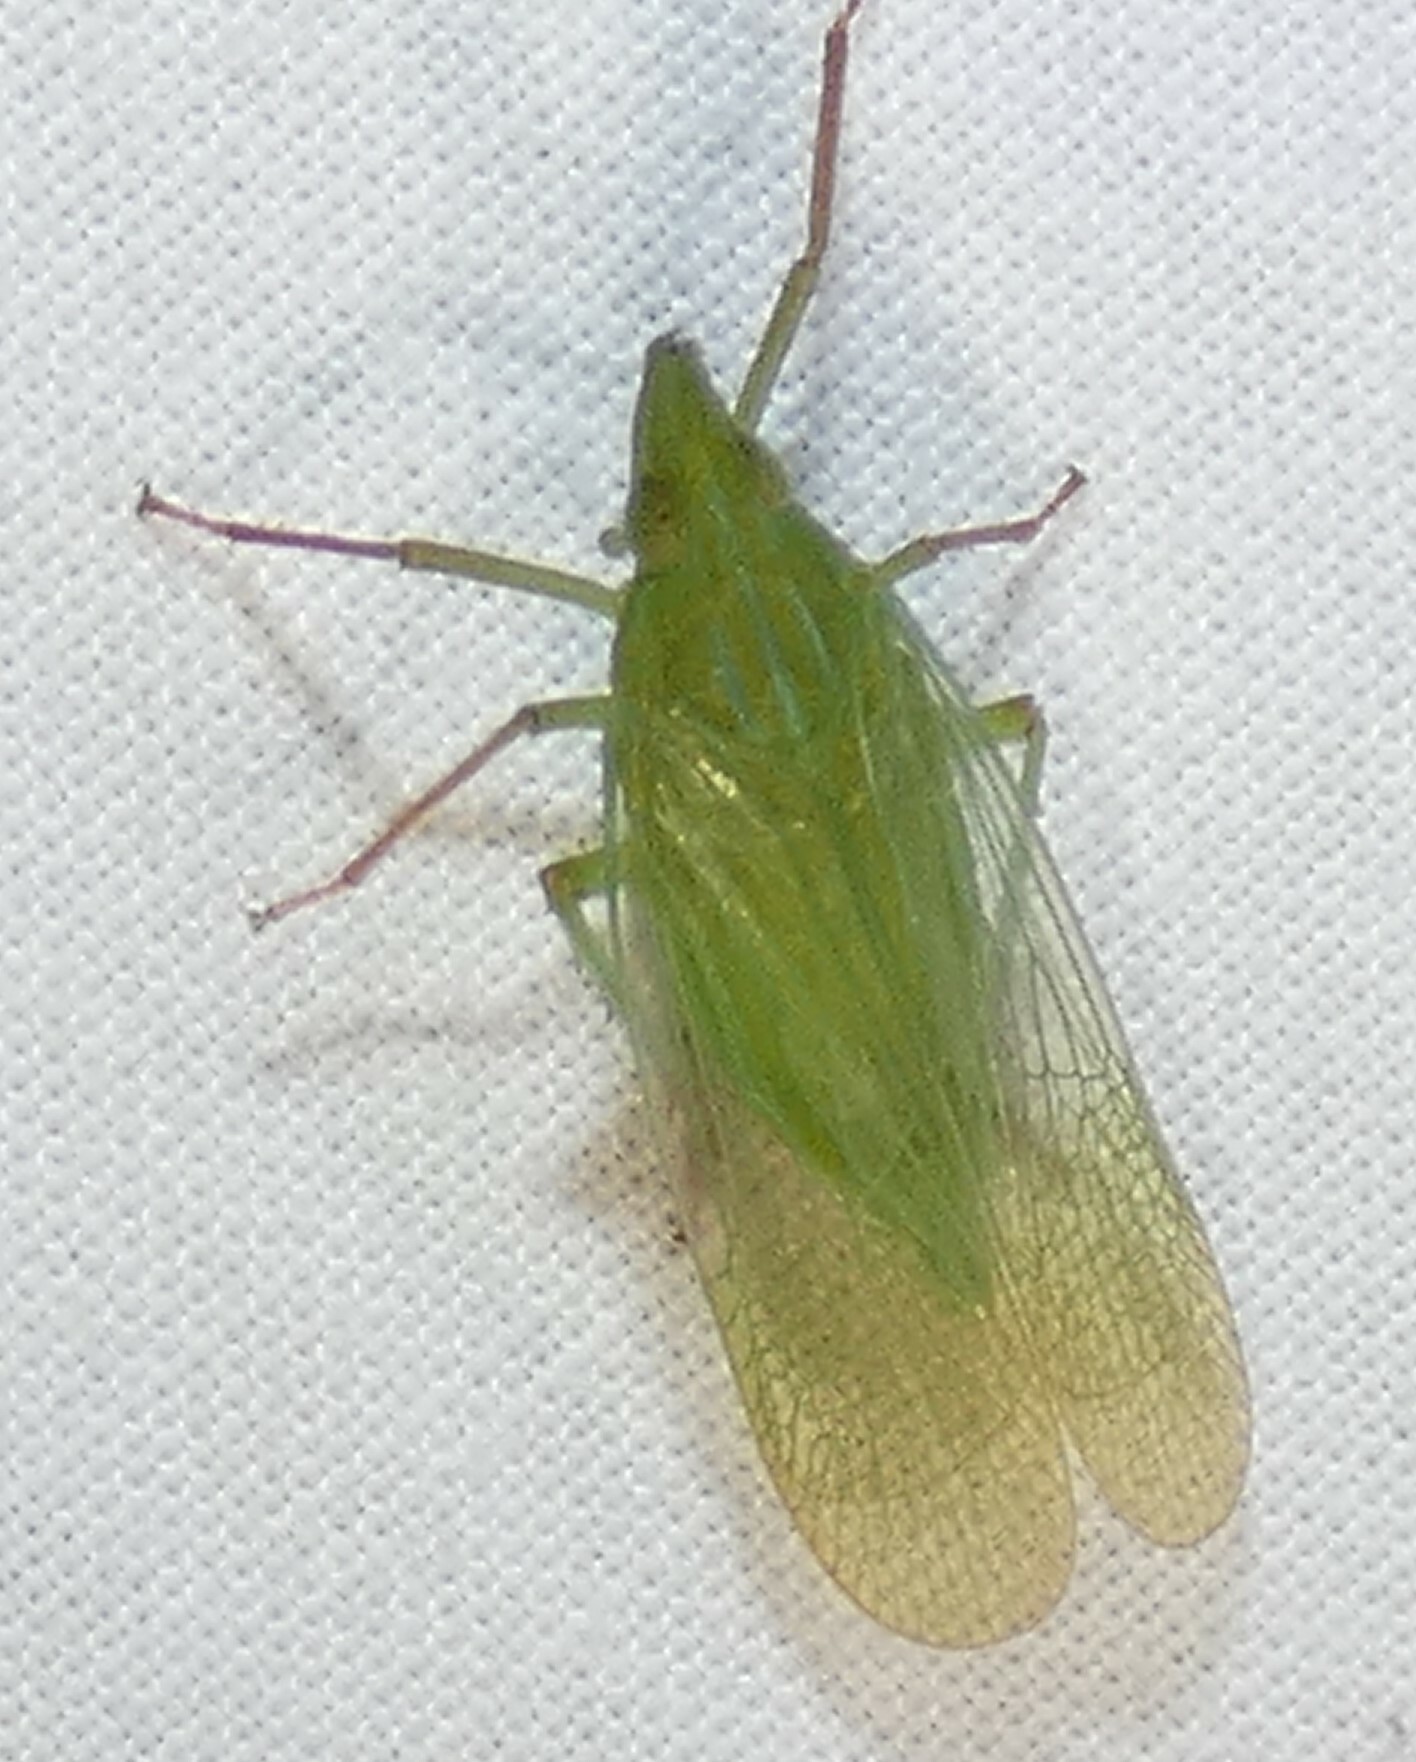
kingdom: Animalia
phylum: Arthropoda
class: Insecta
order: Hemiptera
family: Dictyopharidae
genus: Rhynchomitra
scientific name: Rhynchomitra microrhina
